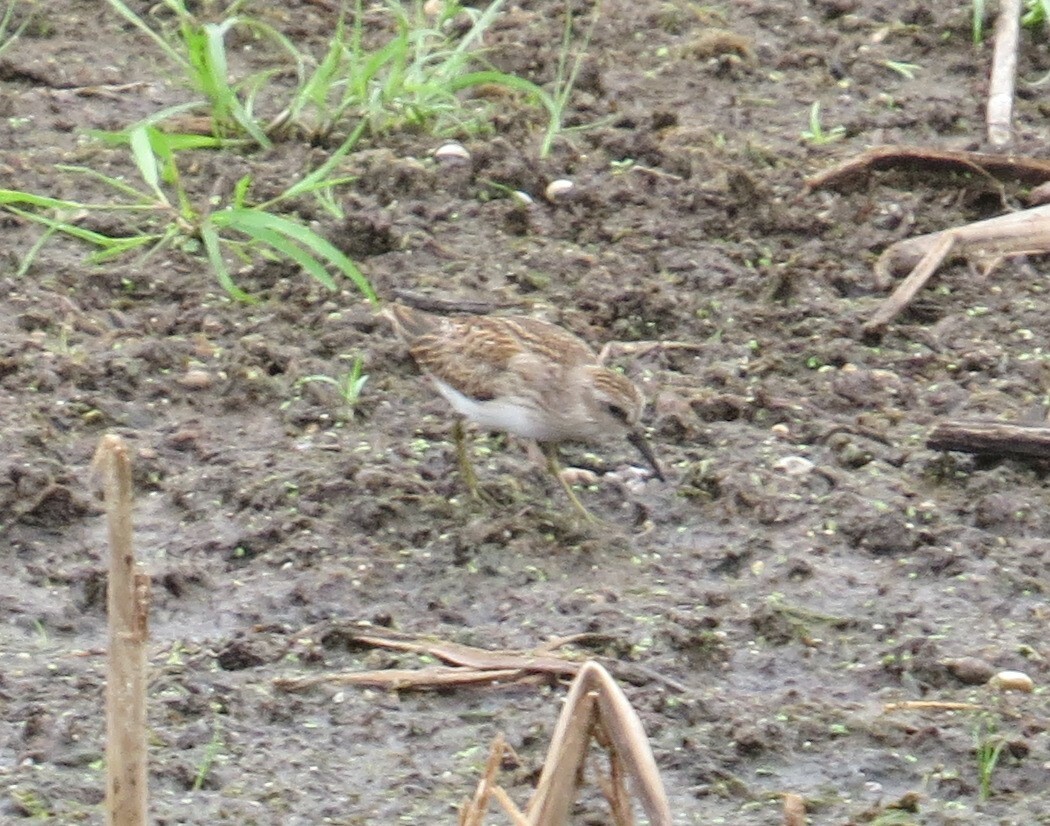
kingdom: Animalia
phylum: Chordata
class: Aves
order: Charadriiformes
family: Scolopacidae
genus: Calidris
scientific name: Calidris minutilla
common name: Least sandpiper
